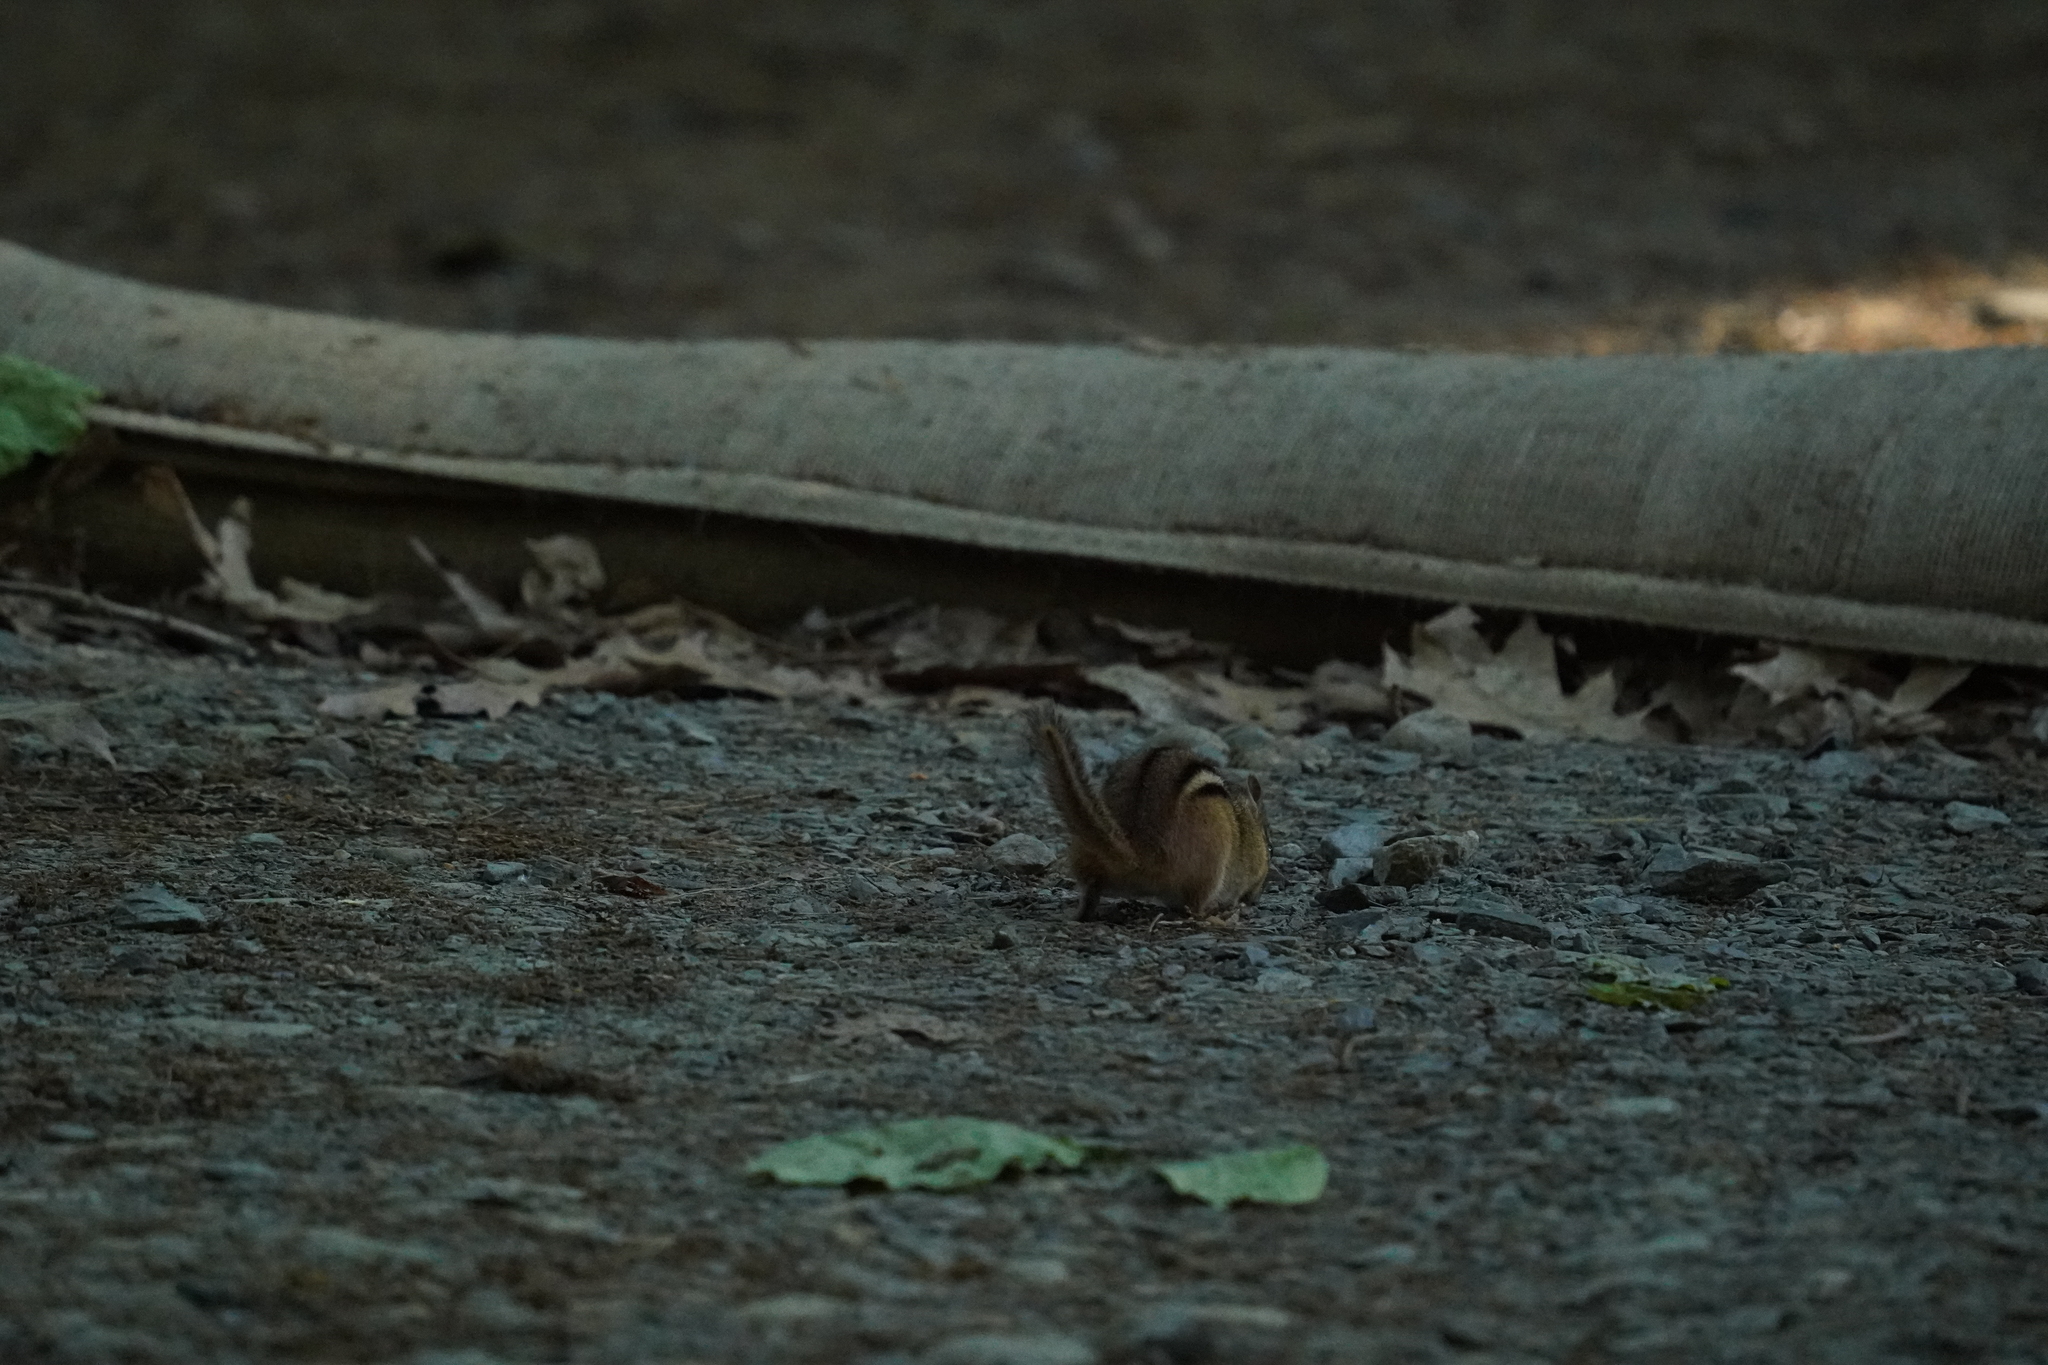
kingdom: Animalia
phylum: Chordata
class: Mammalia
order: Rodentia
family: Sciuridae
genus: Tamias
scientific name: Tamias striatus
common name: Eastern chipmunk
